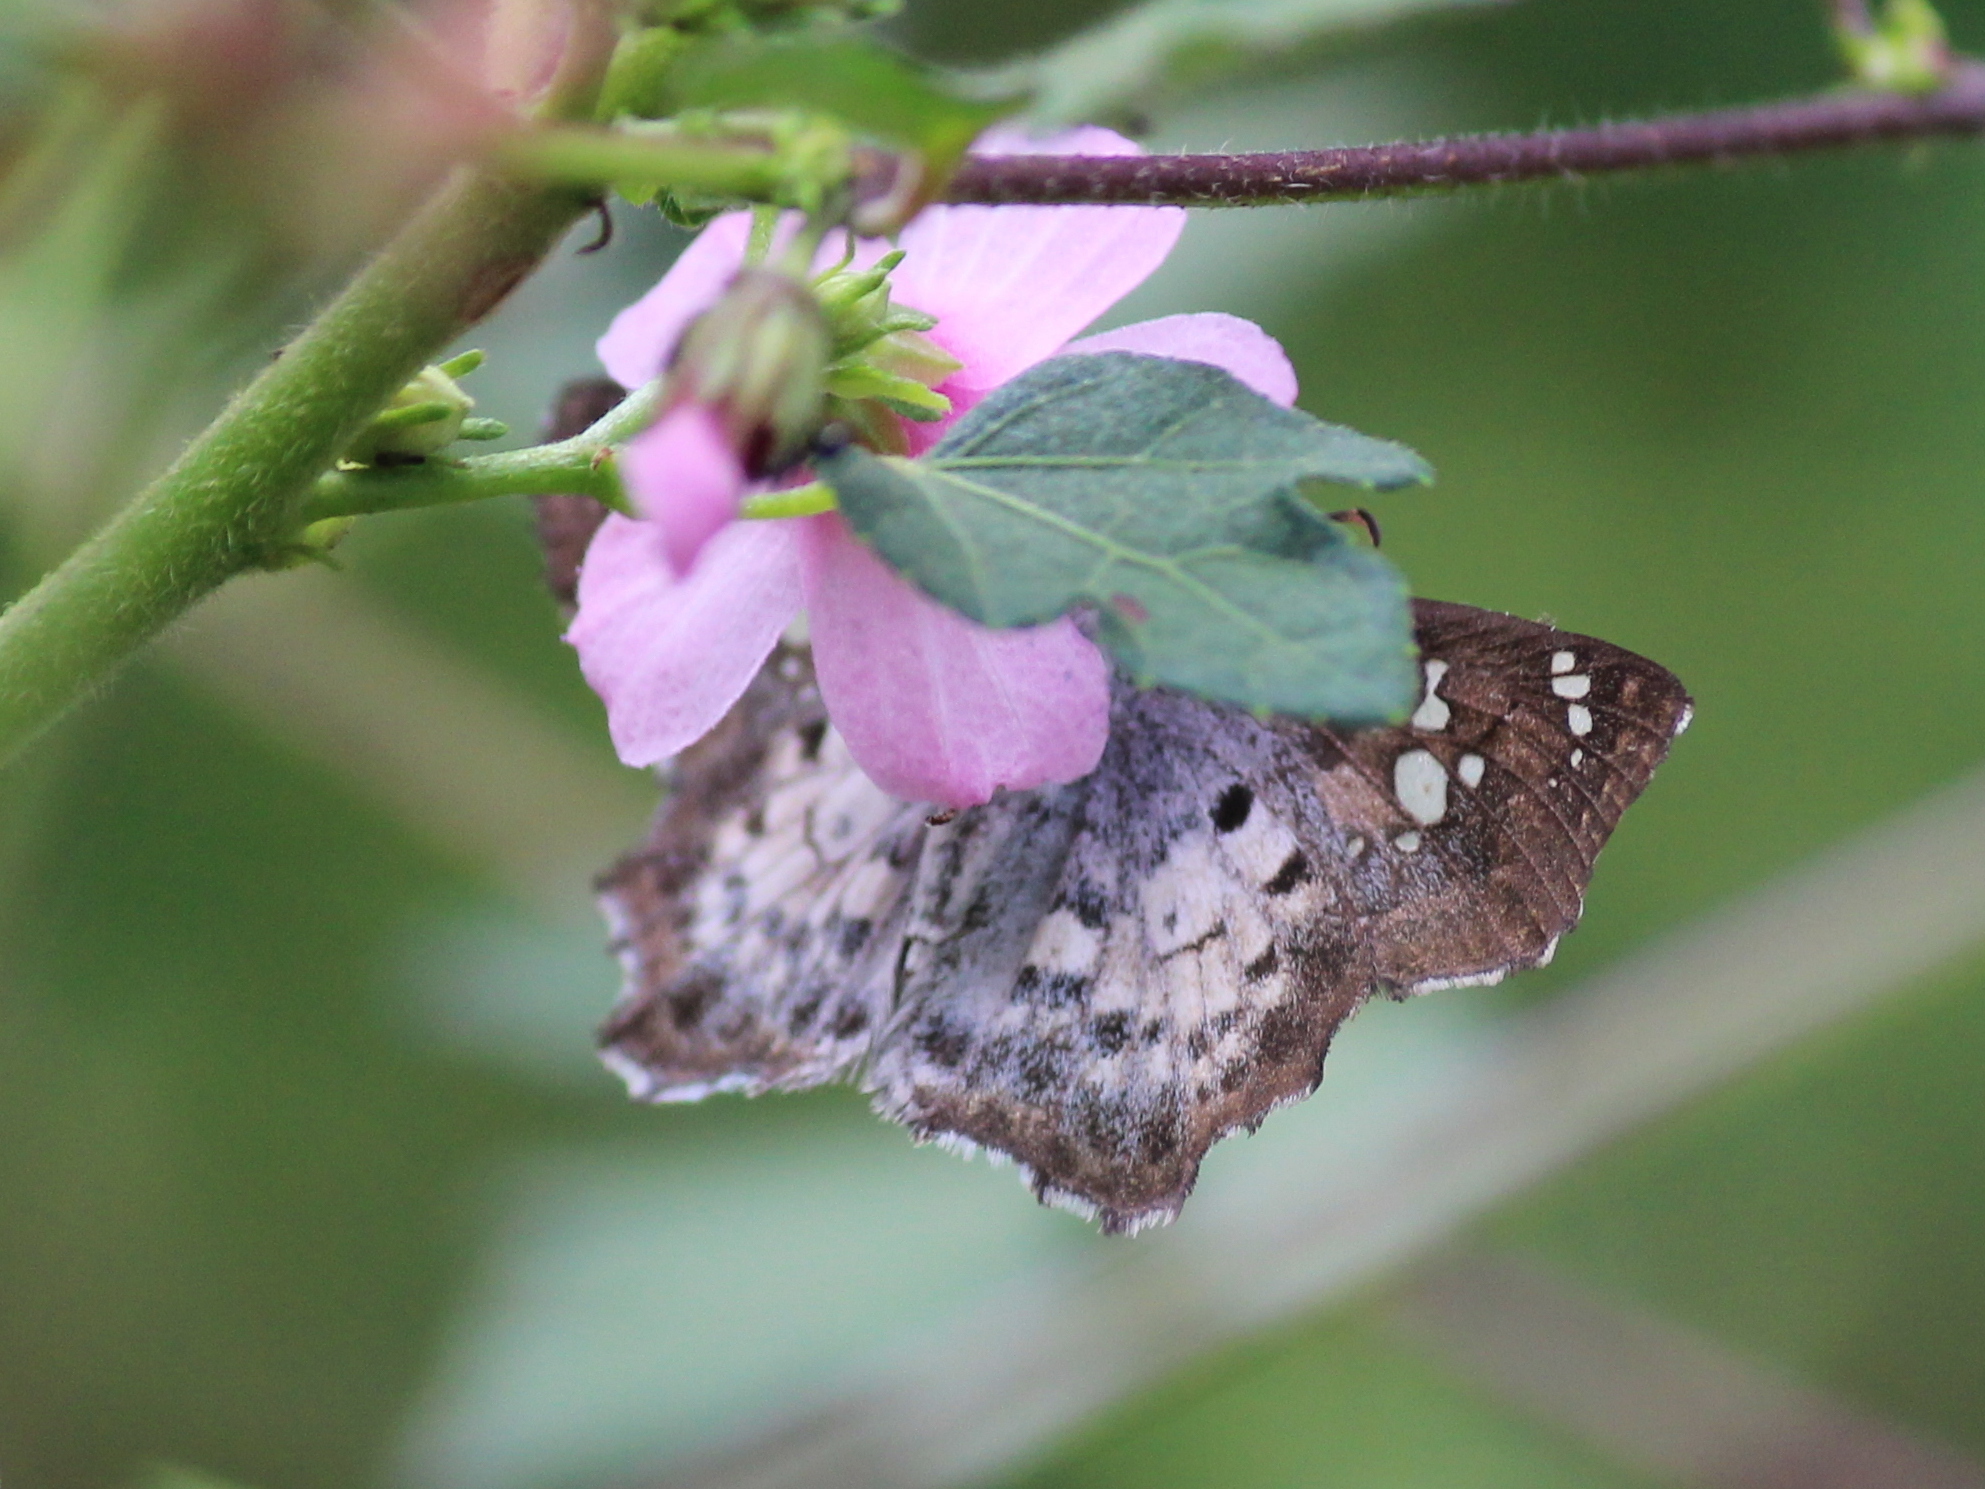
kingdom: Animalia
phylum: Arthropoda
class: Insecta
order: Lepidoptera
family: Hesperiidae
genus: Caprona
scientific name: Caprona ransonnettii
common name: Golden angle
